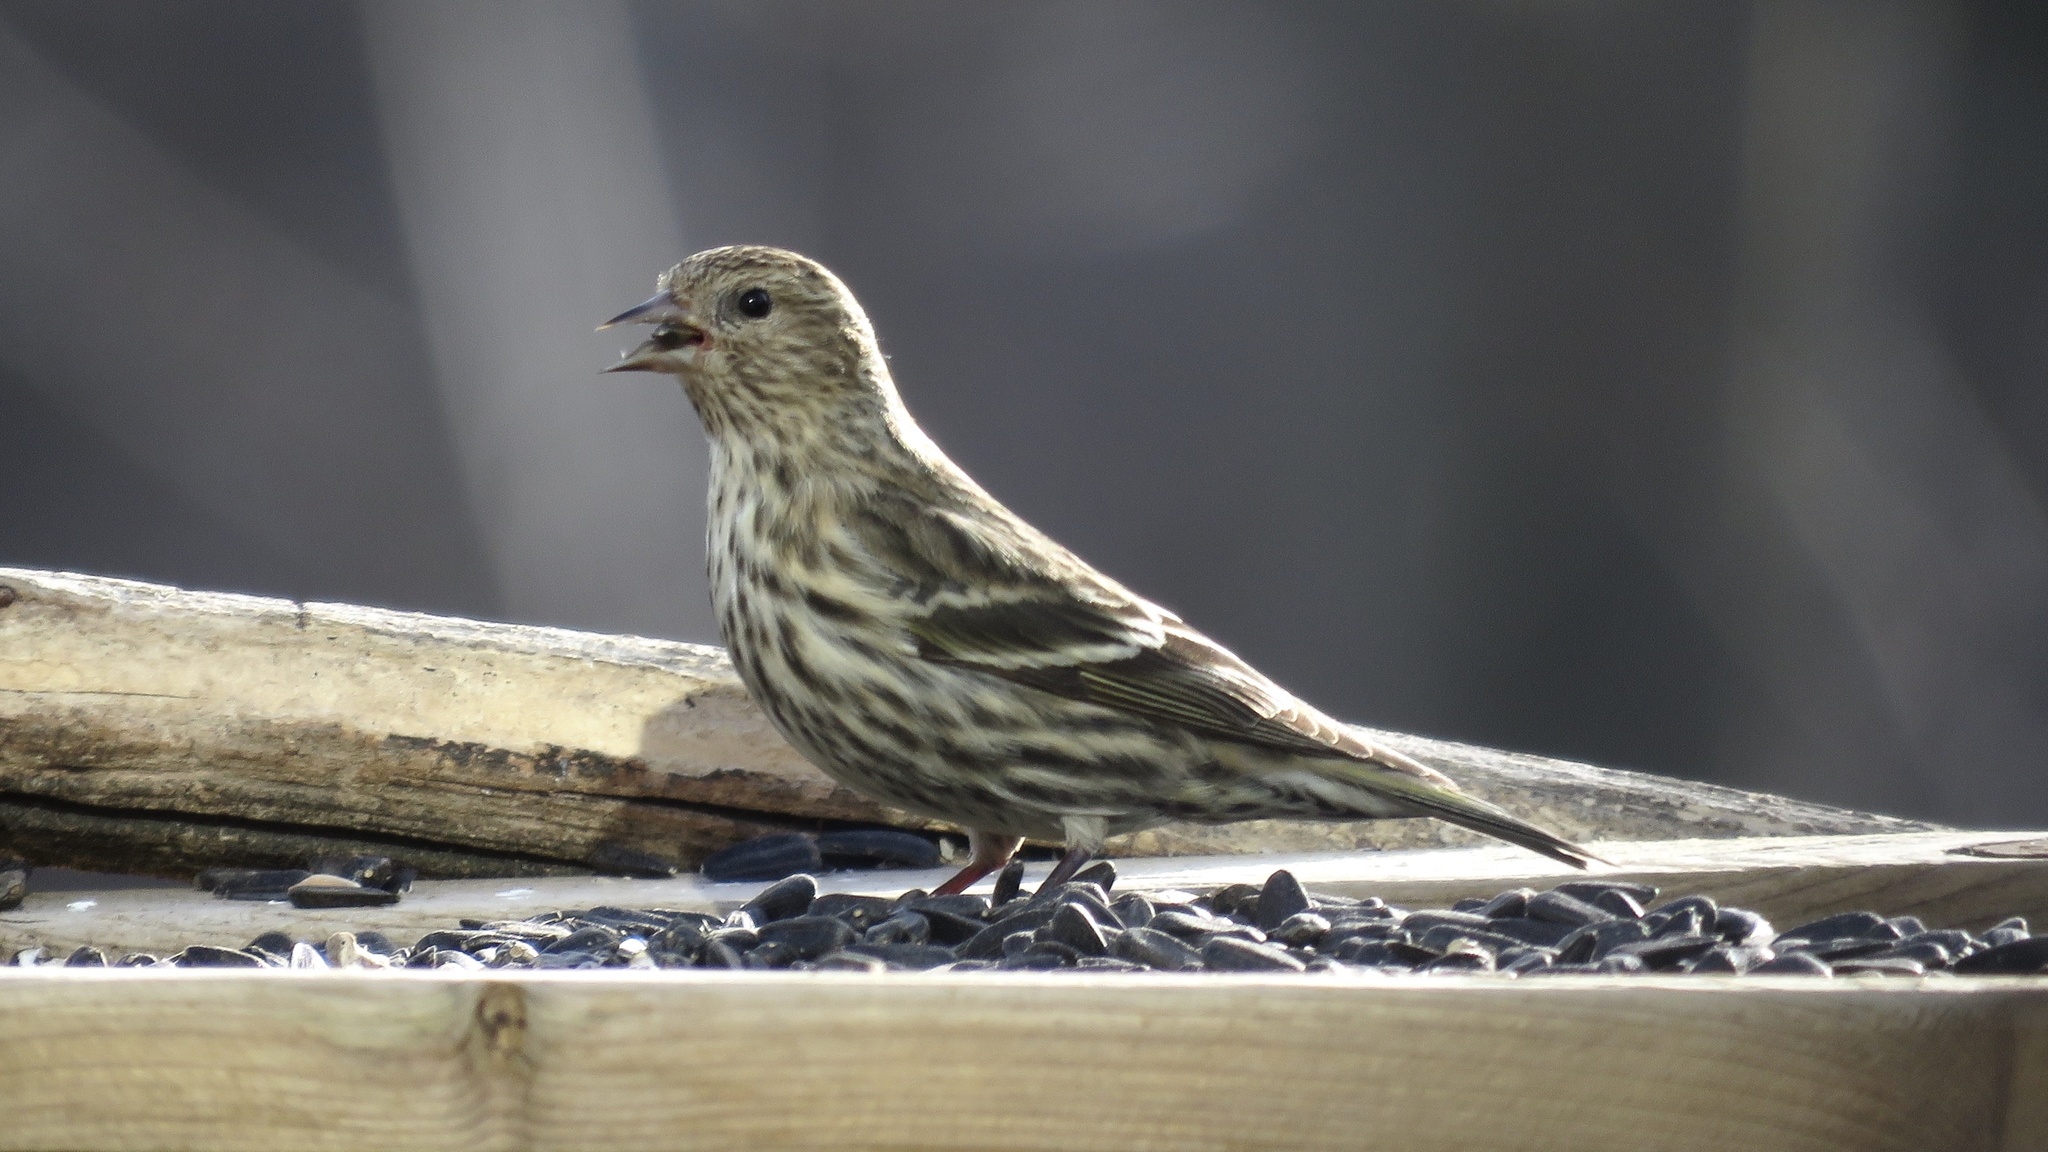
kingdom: Animalia
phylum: Chordata
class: Aves
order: Passeriformes
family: Fringillidae
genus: Spinus
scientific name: Spinus pinus
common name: Pine siskin
